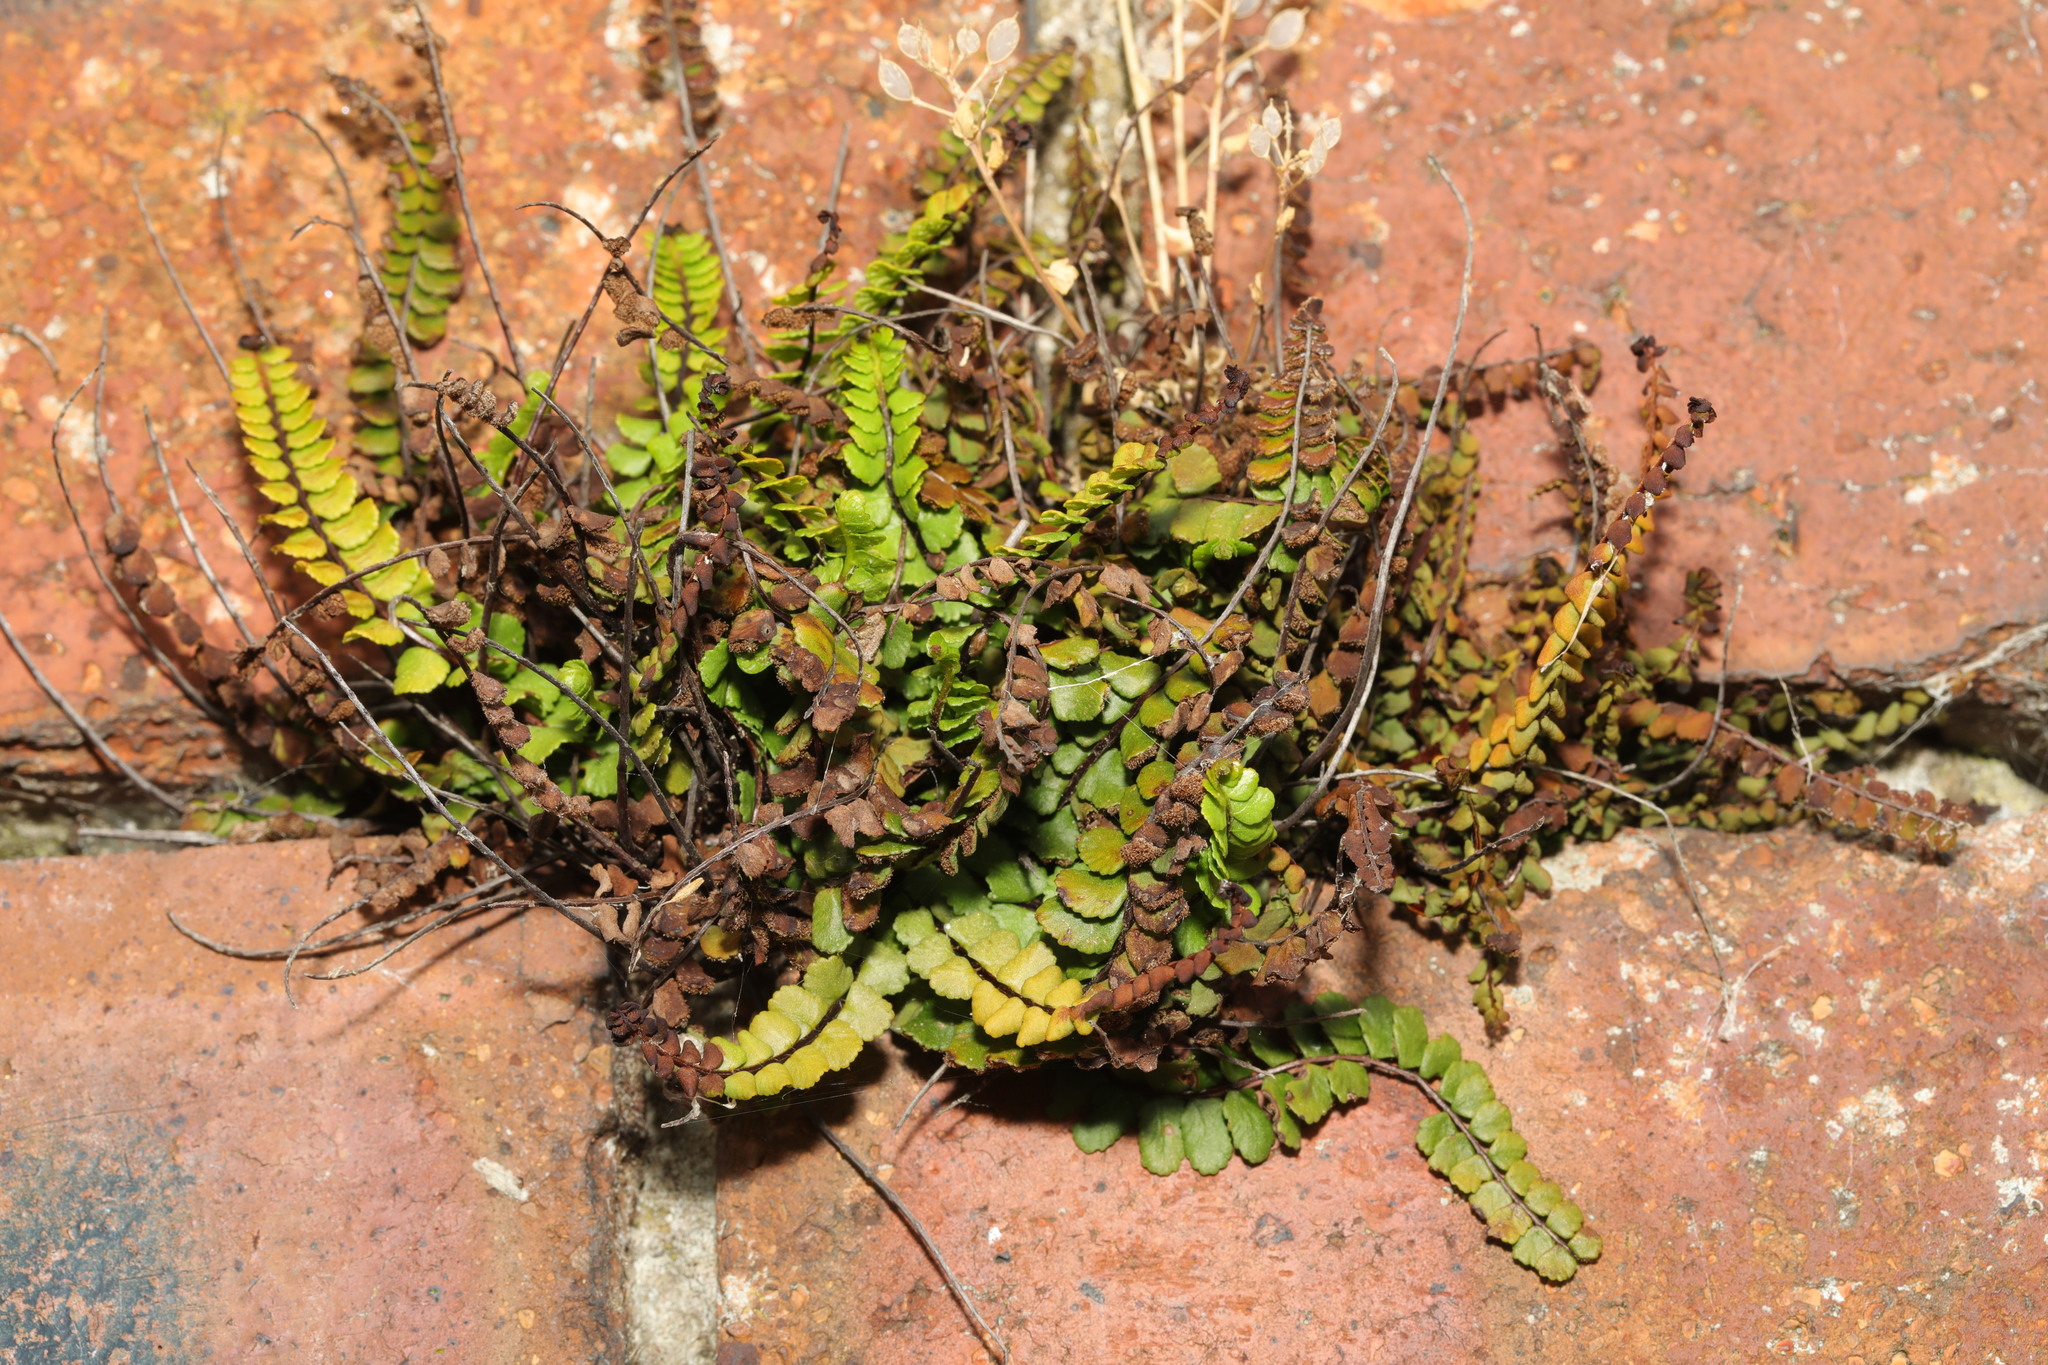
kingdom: Plantae
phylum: Tracheophyta
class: Polypodiopsida
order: Polypodiales
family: Aspleniaceae
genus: Asplenium
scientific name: Asplenium trichomanes
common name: Maidenhair spleenwort
